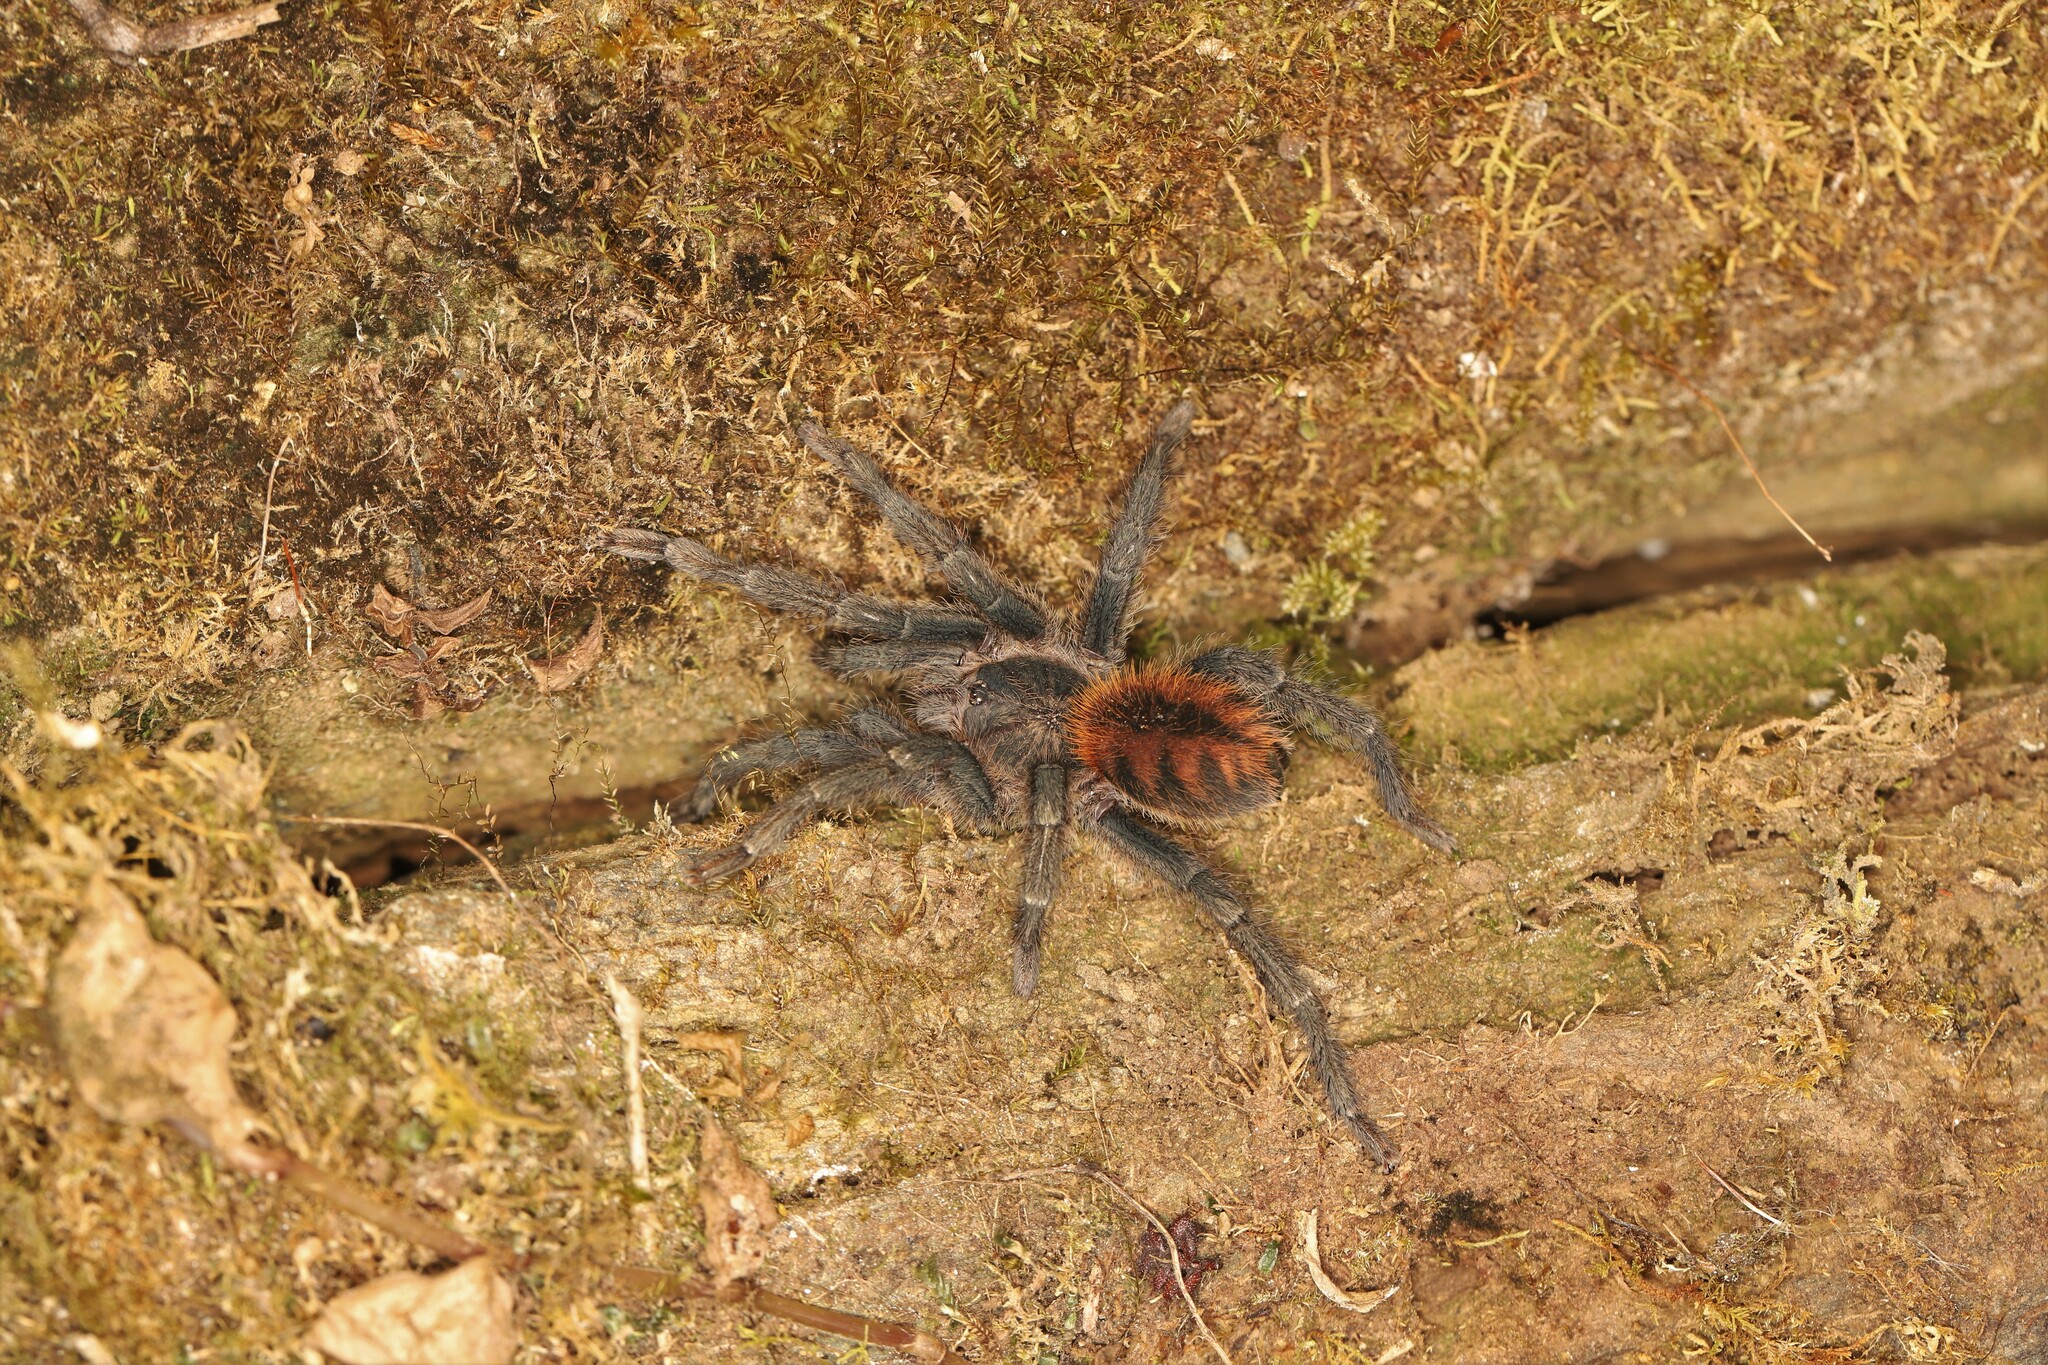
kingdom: Animalia
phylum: Arthropoda
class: Arachnida
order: Araneae
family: Theraphosidae
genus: Kankuamo
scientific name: Kankuamo marquezi
